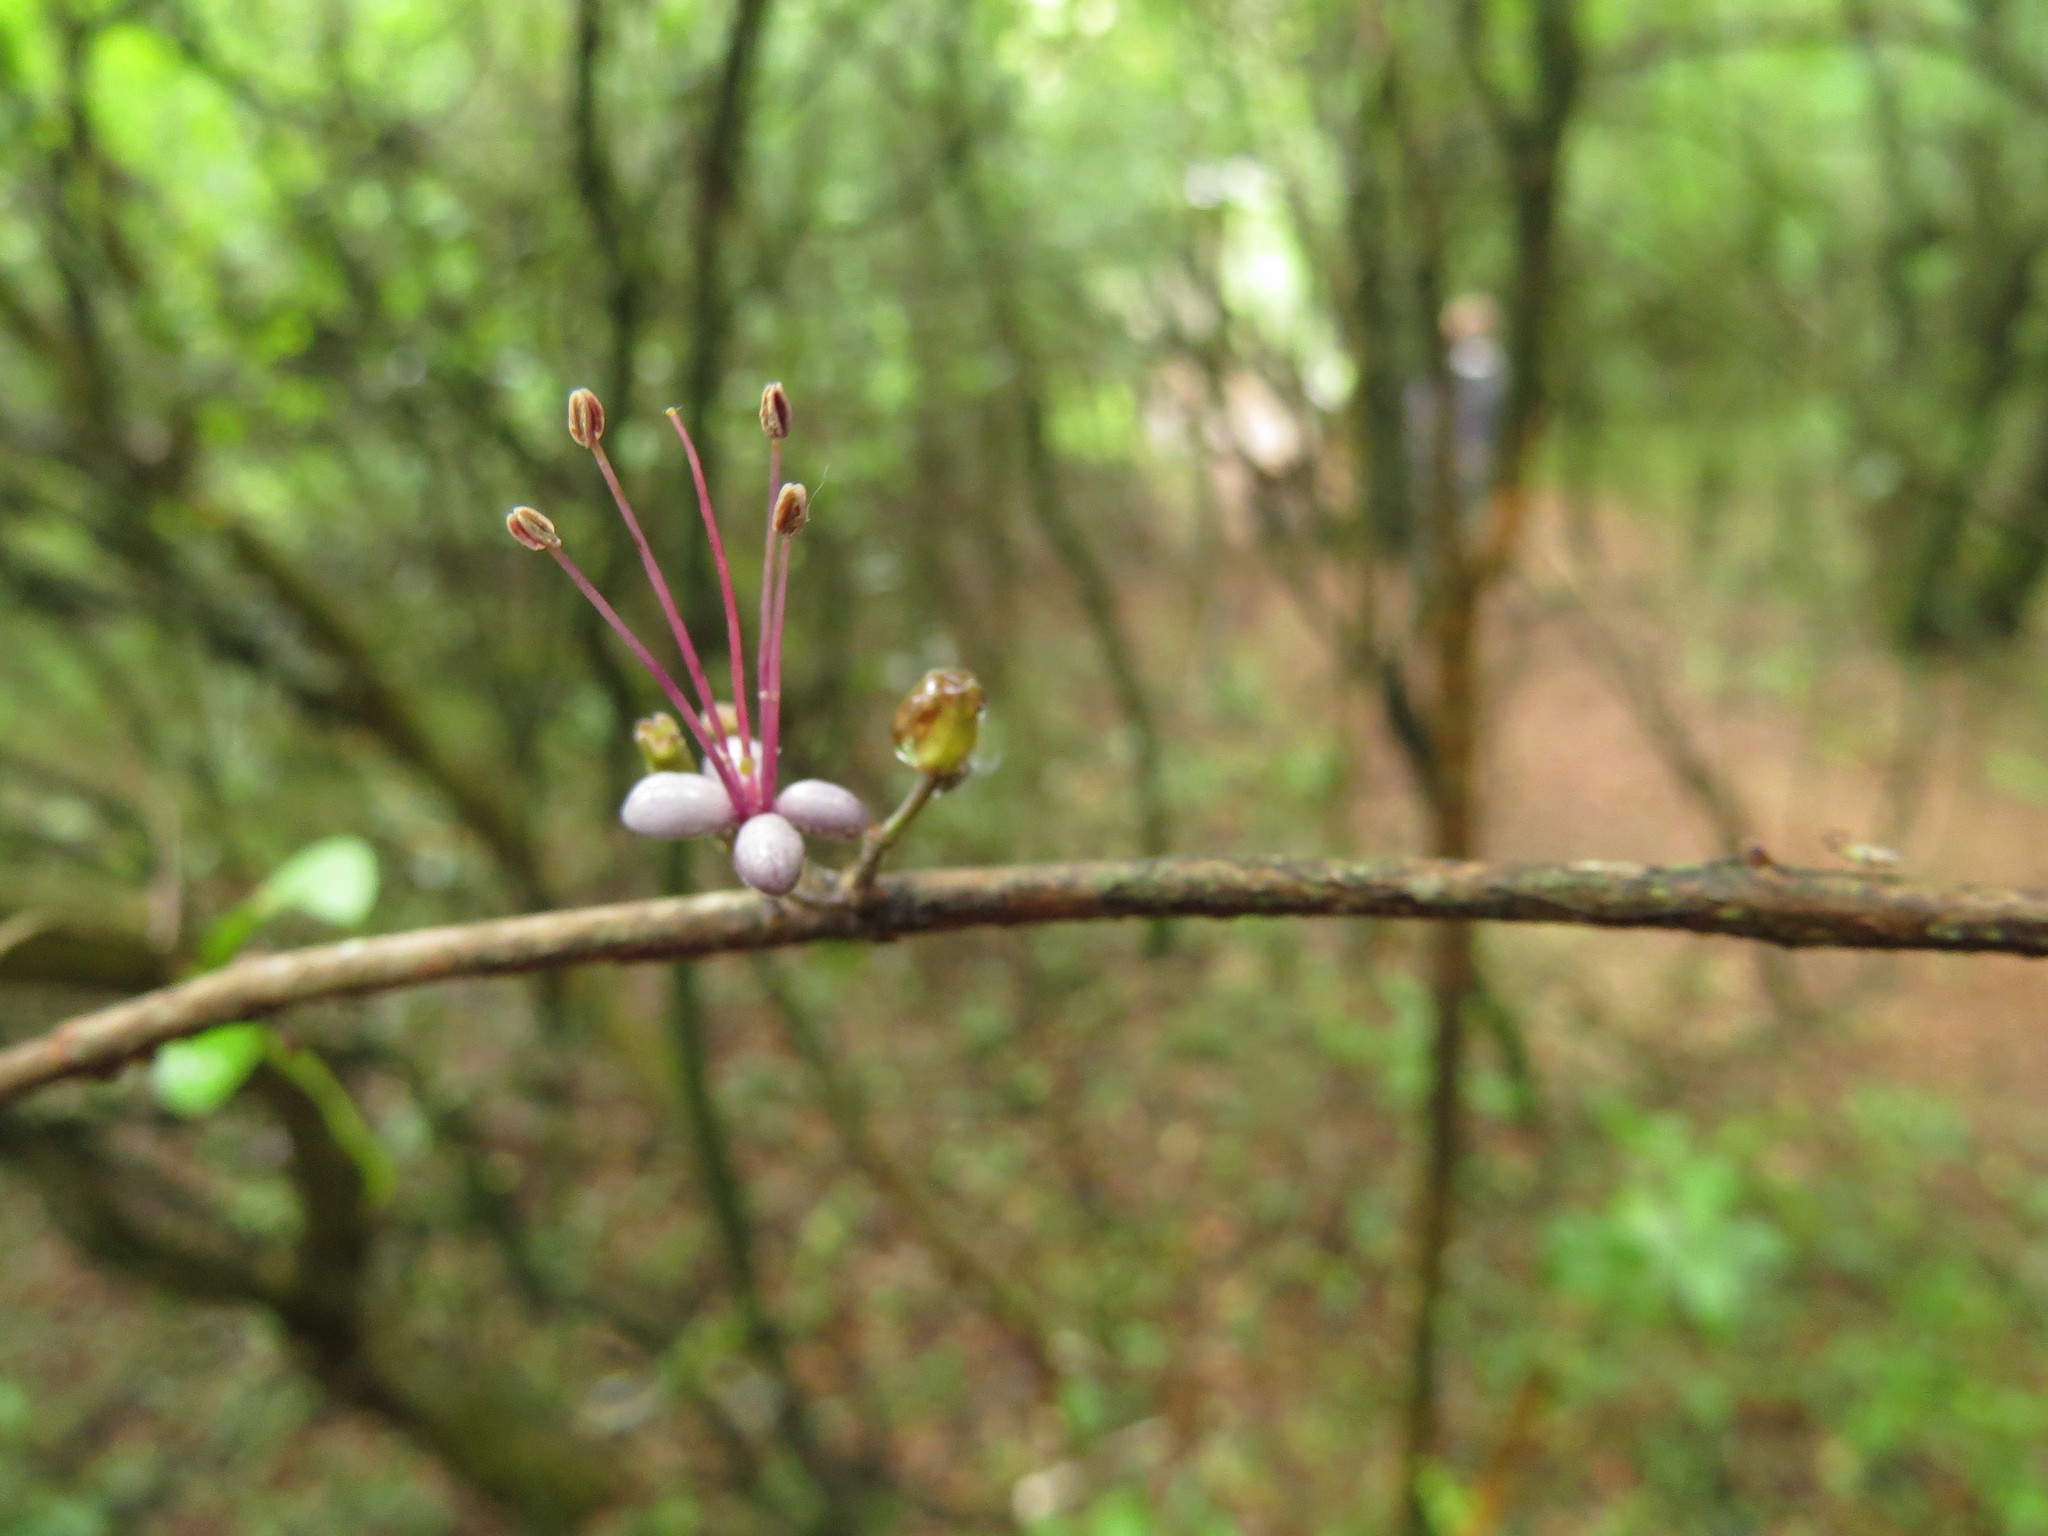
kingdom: Plantae
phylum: Tracheophyta
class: Magnoliopsida
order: Myrtales
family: Myrtaceae
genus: Myrrhinium
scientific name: Myrrhinium atropurpureum
